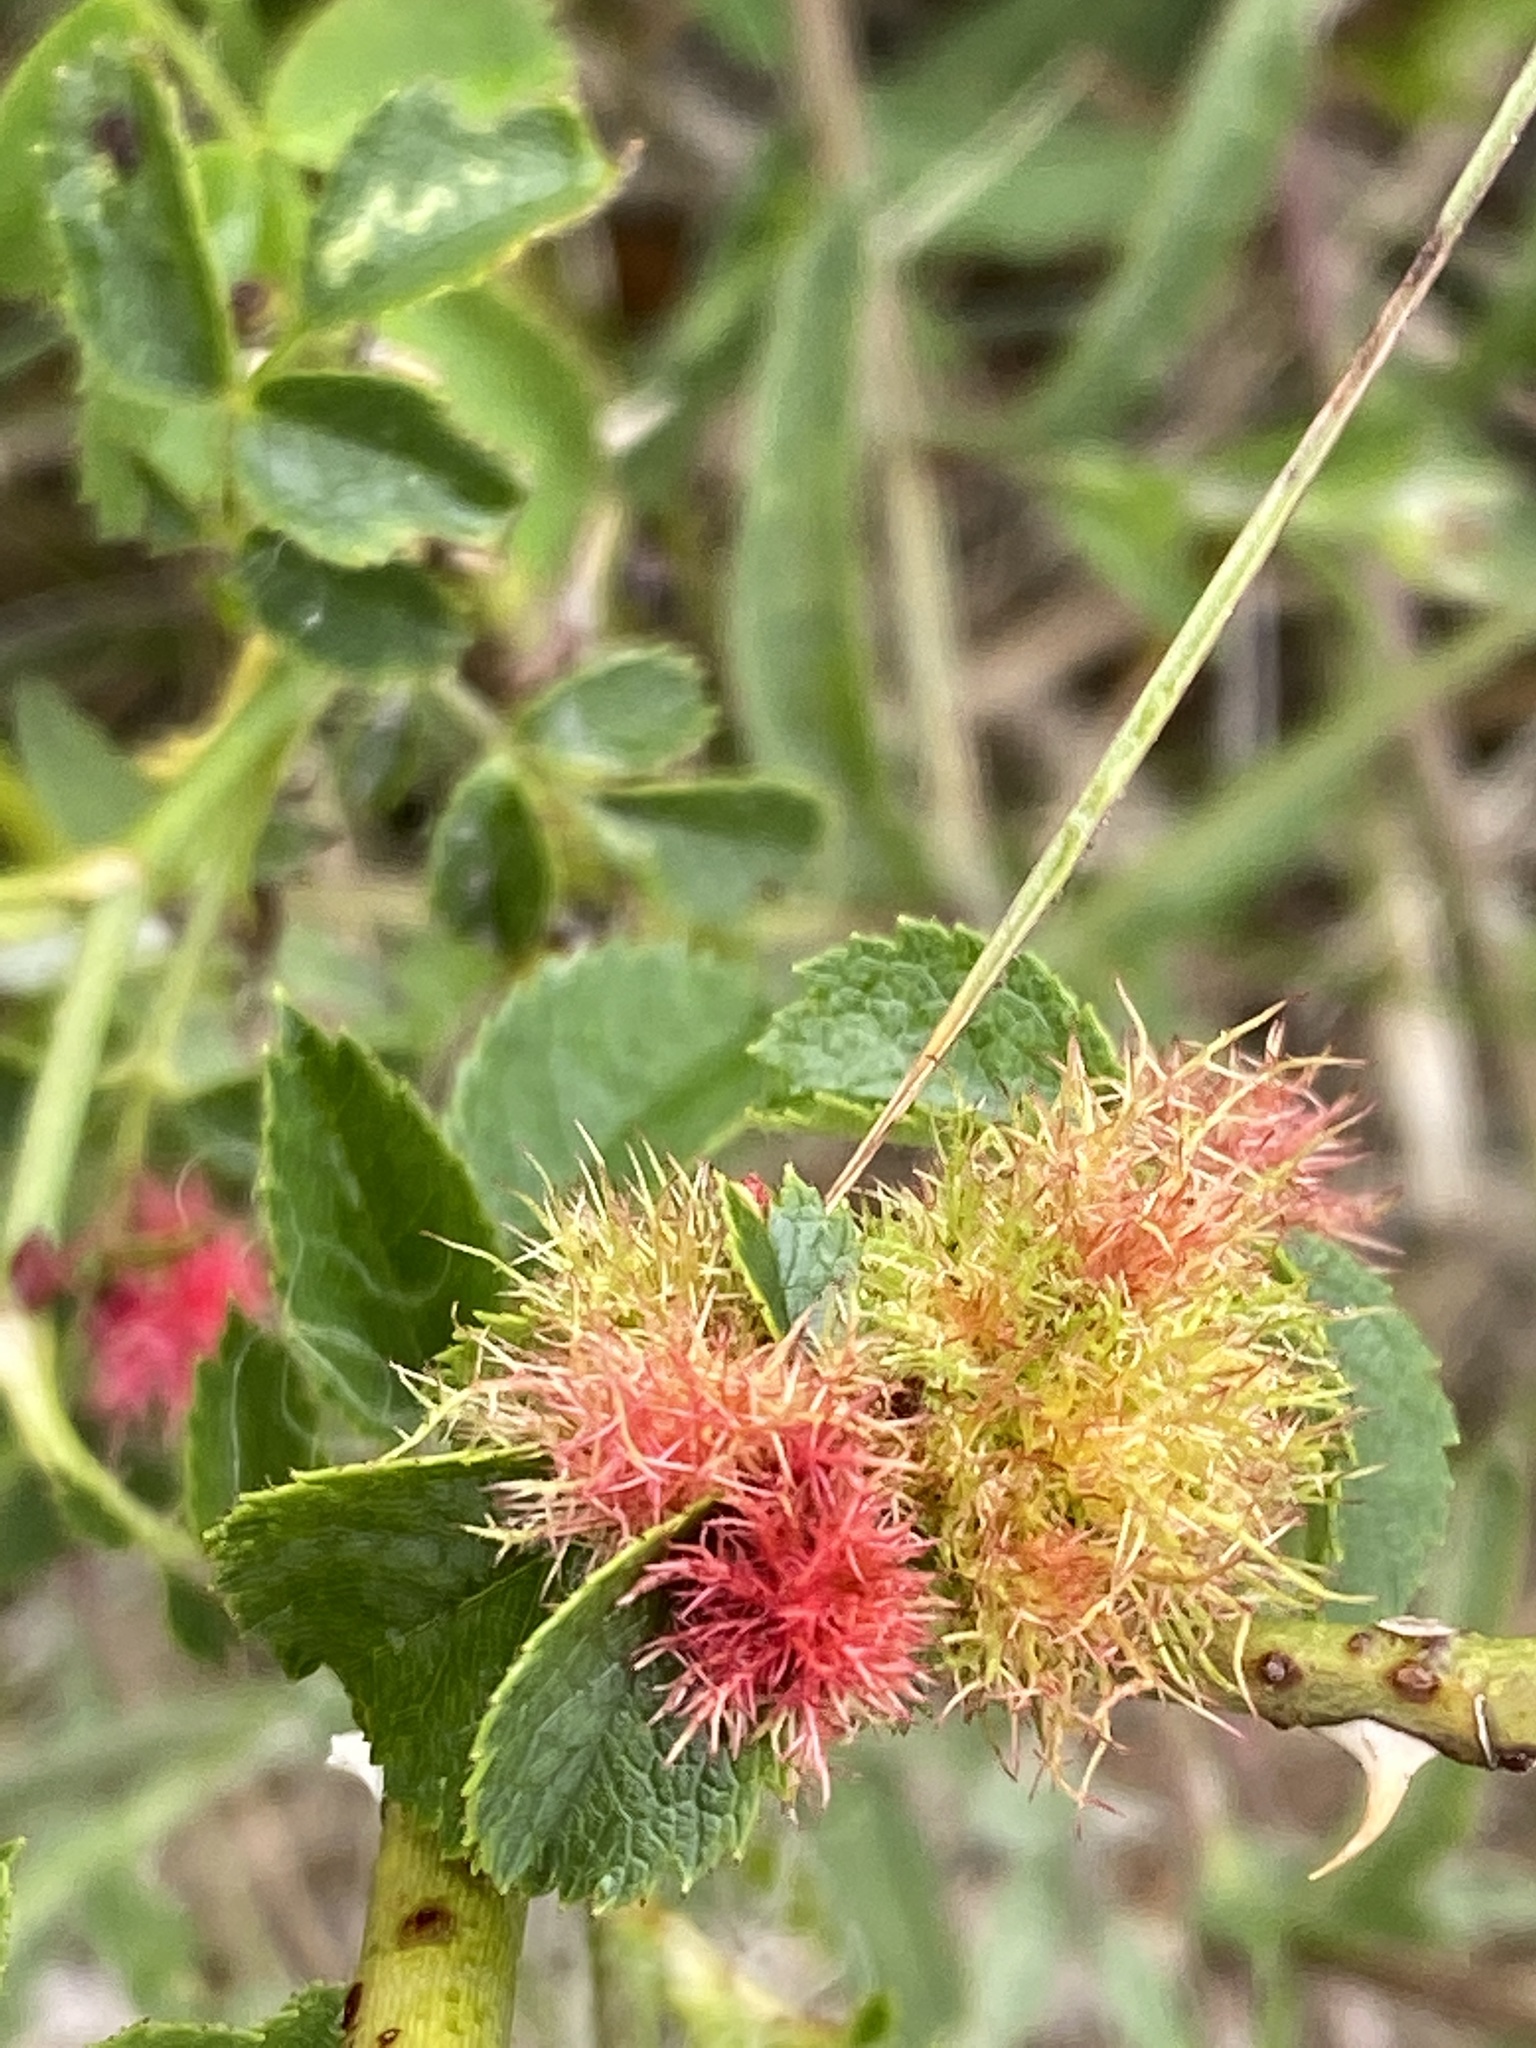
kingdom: Animalia
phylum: Arthropoda
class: Insecta
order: Hymenoptera
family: Cynipidae
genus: Diplolepis
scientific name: Diplolepis rosae
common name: Bedeguar gall
